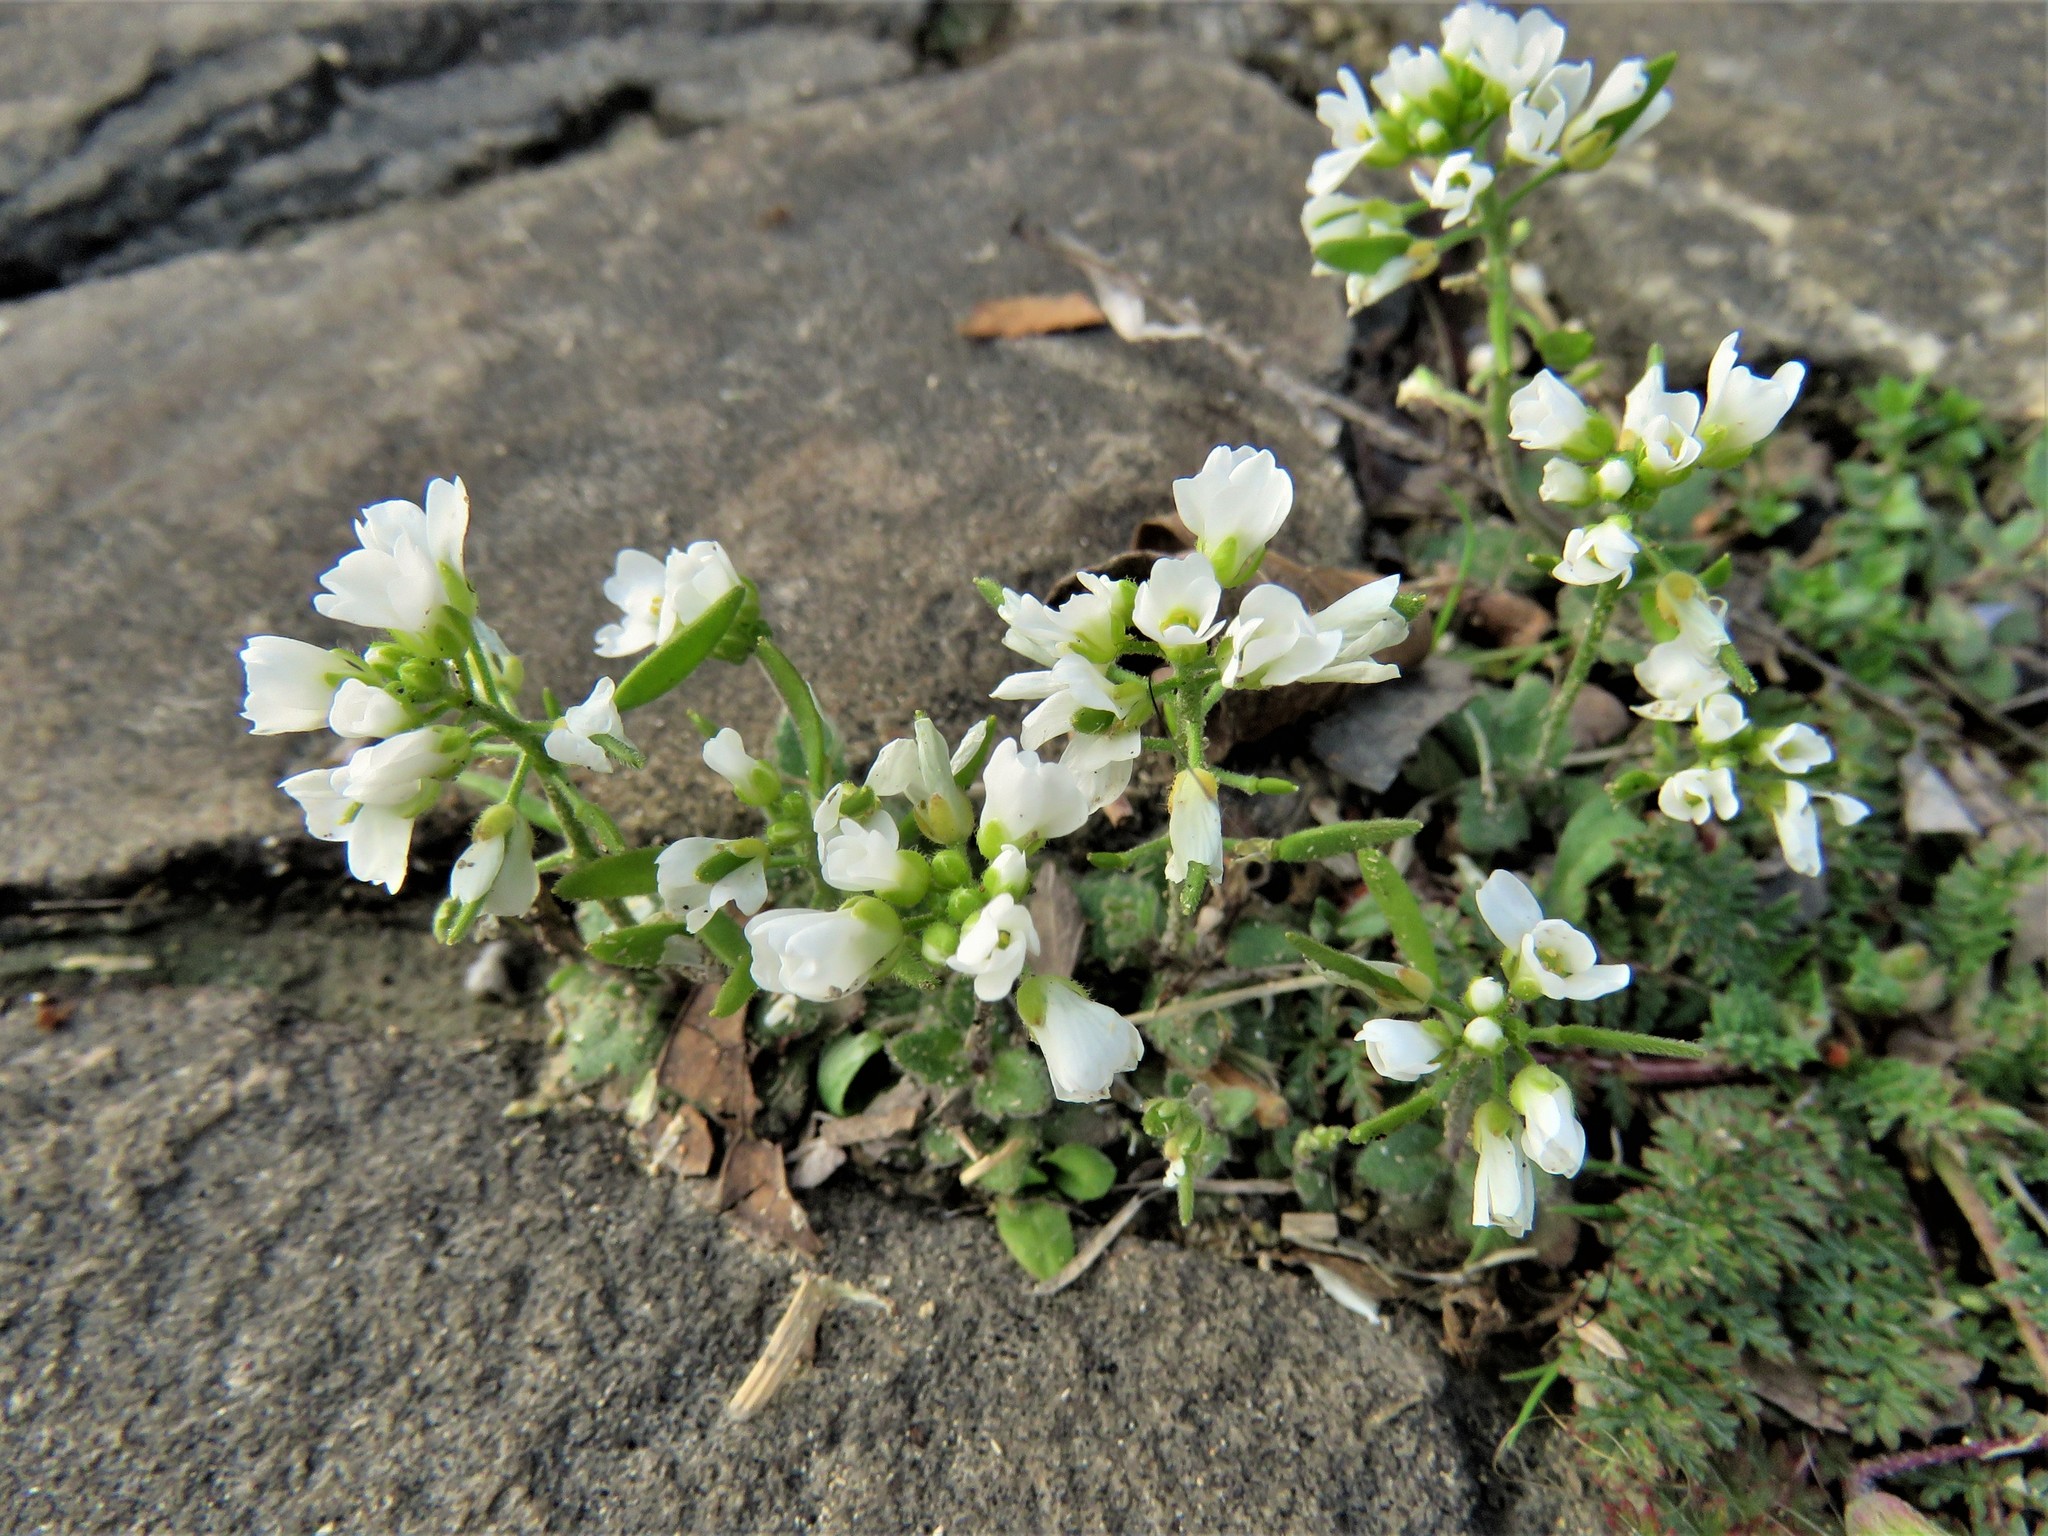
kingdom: Plantae
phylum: Tracheophyta
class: Magnoliopsida
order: Brassicales
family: Brassicaceae
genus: Tomostima
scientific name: Tomostima cuneifolia
